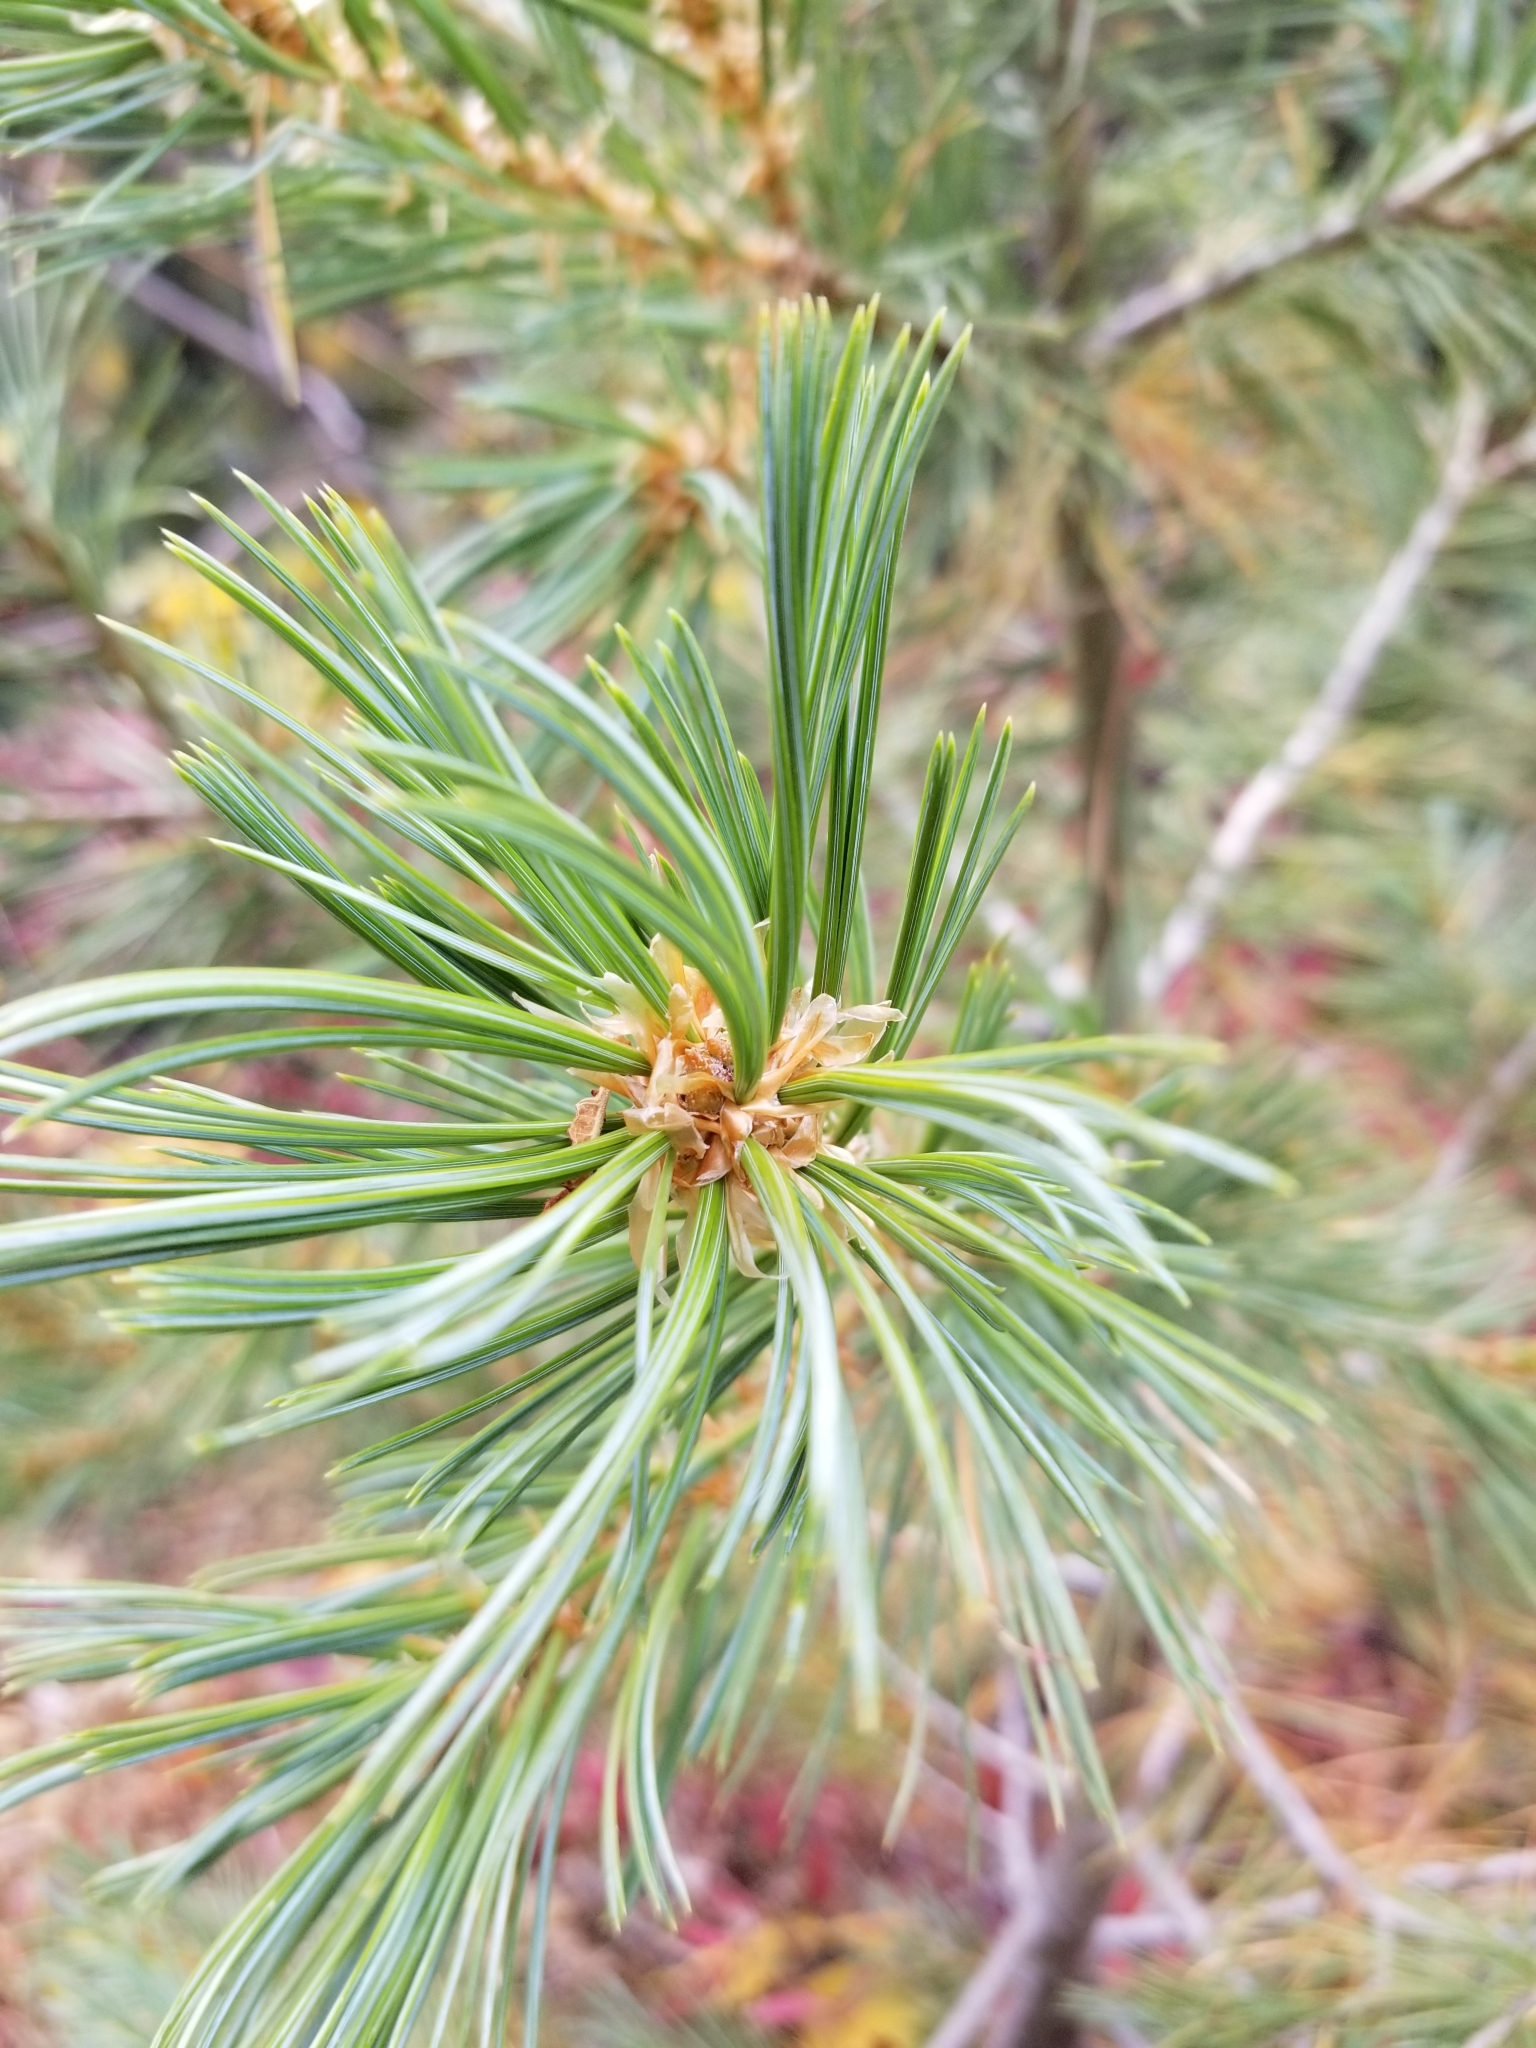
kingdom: Plantae
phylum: Tracheophyta
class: Pinopsida
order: Pinales
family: Pinaceae
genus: Pinus
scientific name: Pinus flexilis
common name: Limber pine
